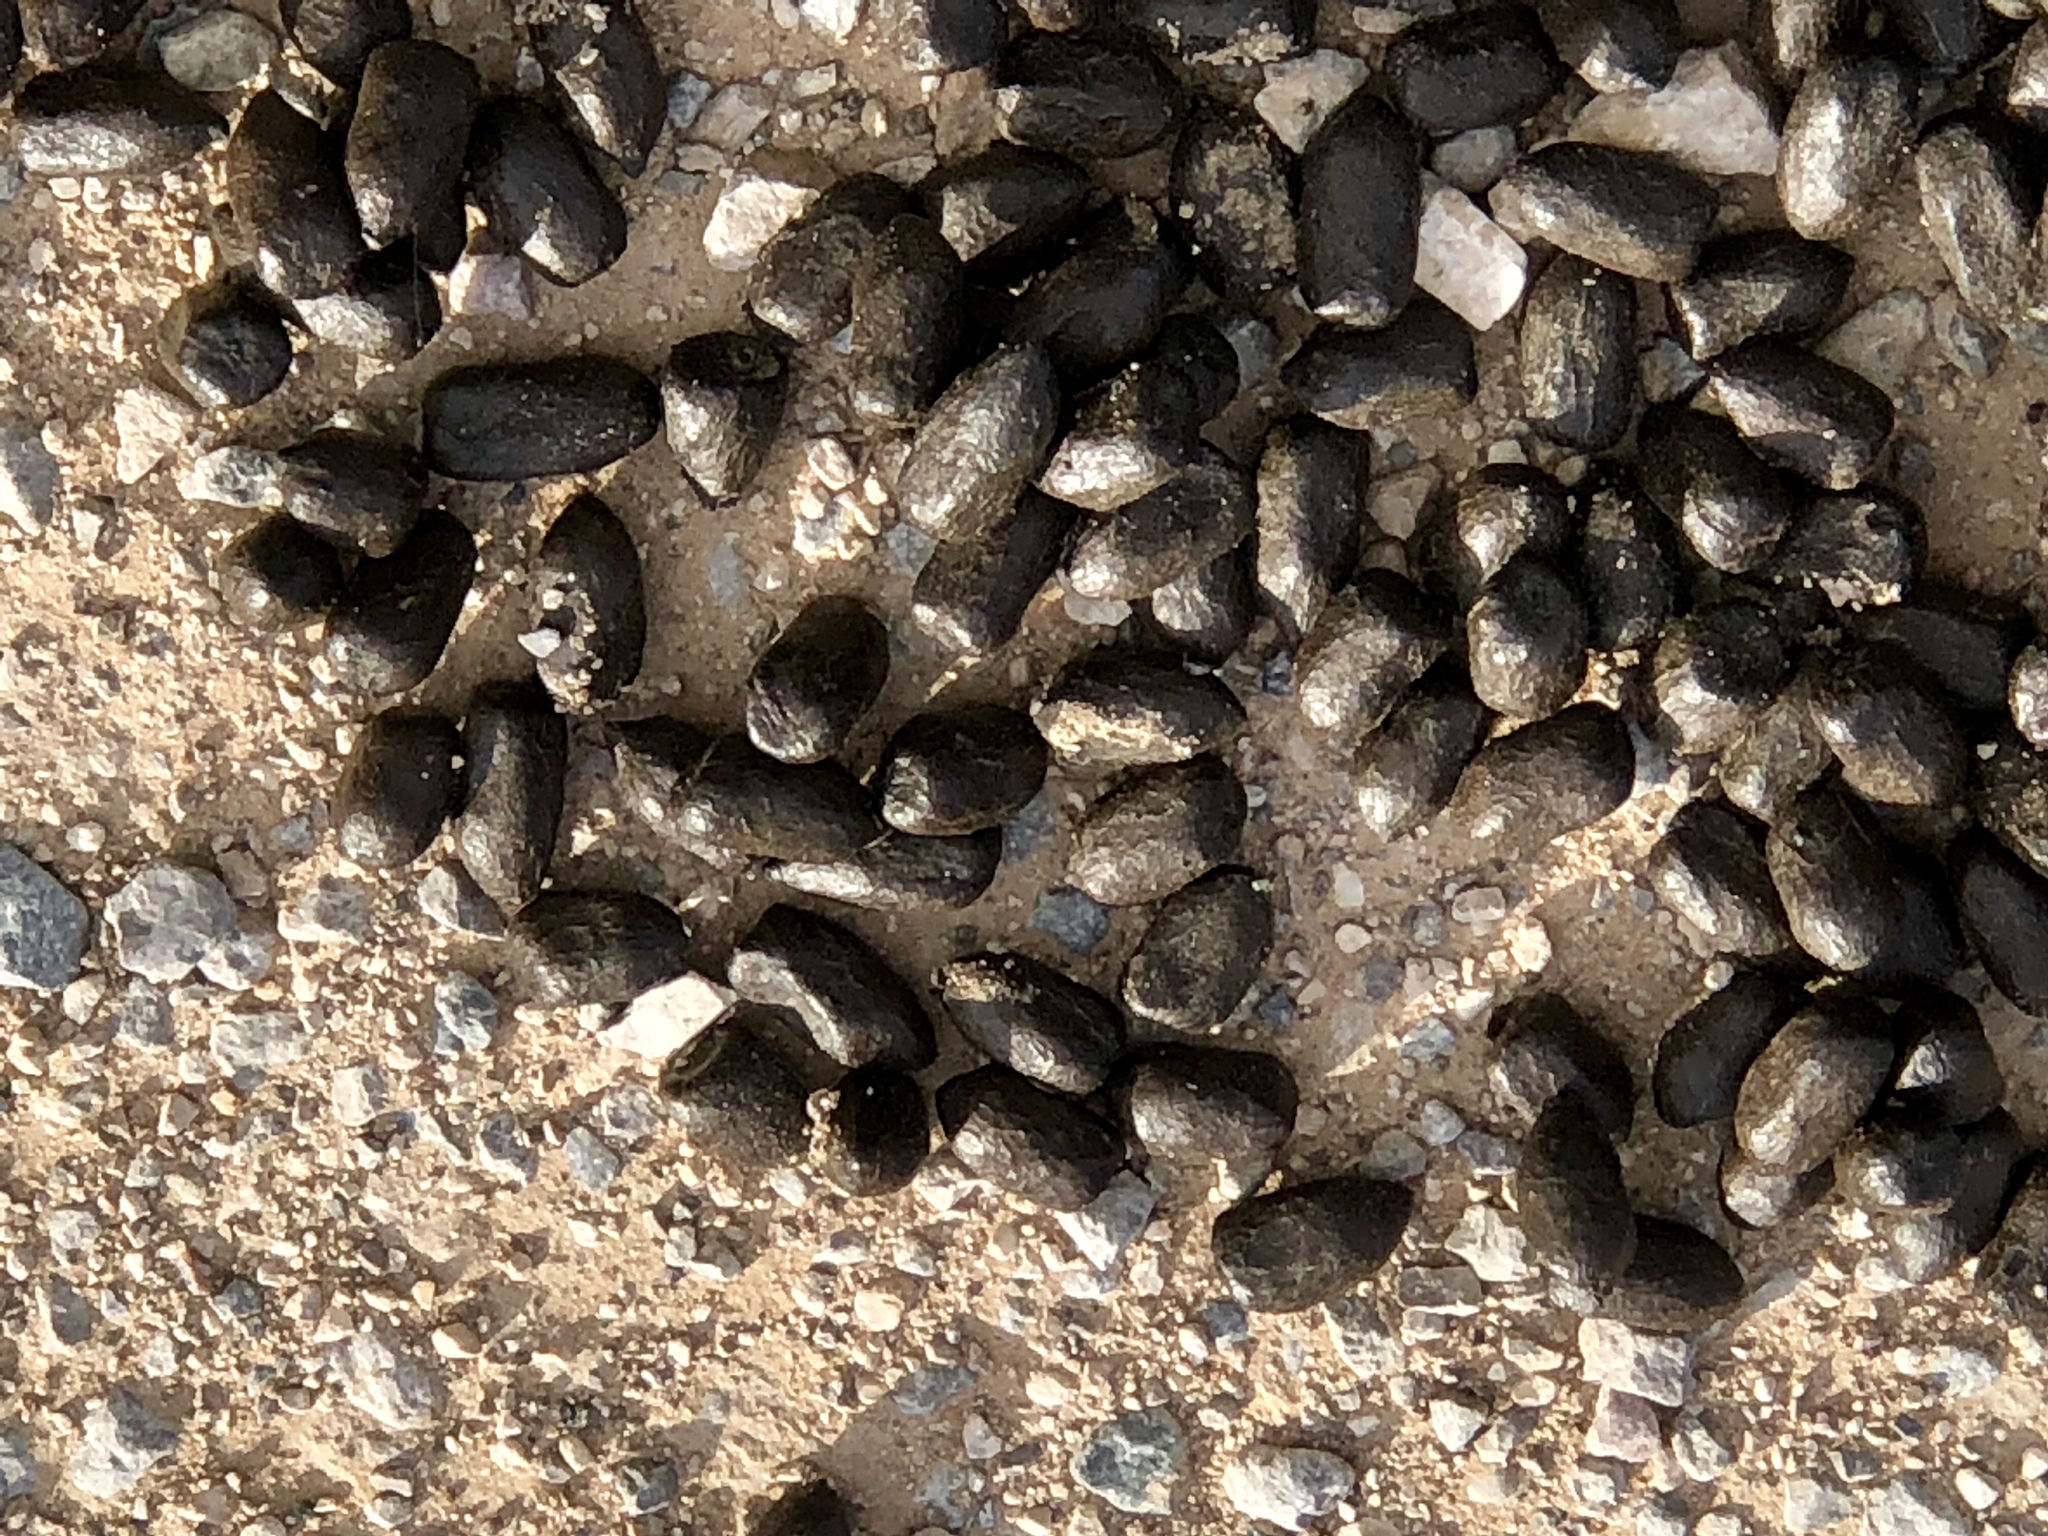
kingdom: Animalia
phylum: Chordata
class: Mammalia
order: Artiodactyla
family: Bovidae
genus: Oryx
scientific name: Oryx gazella
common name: Gemsbok
